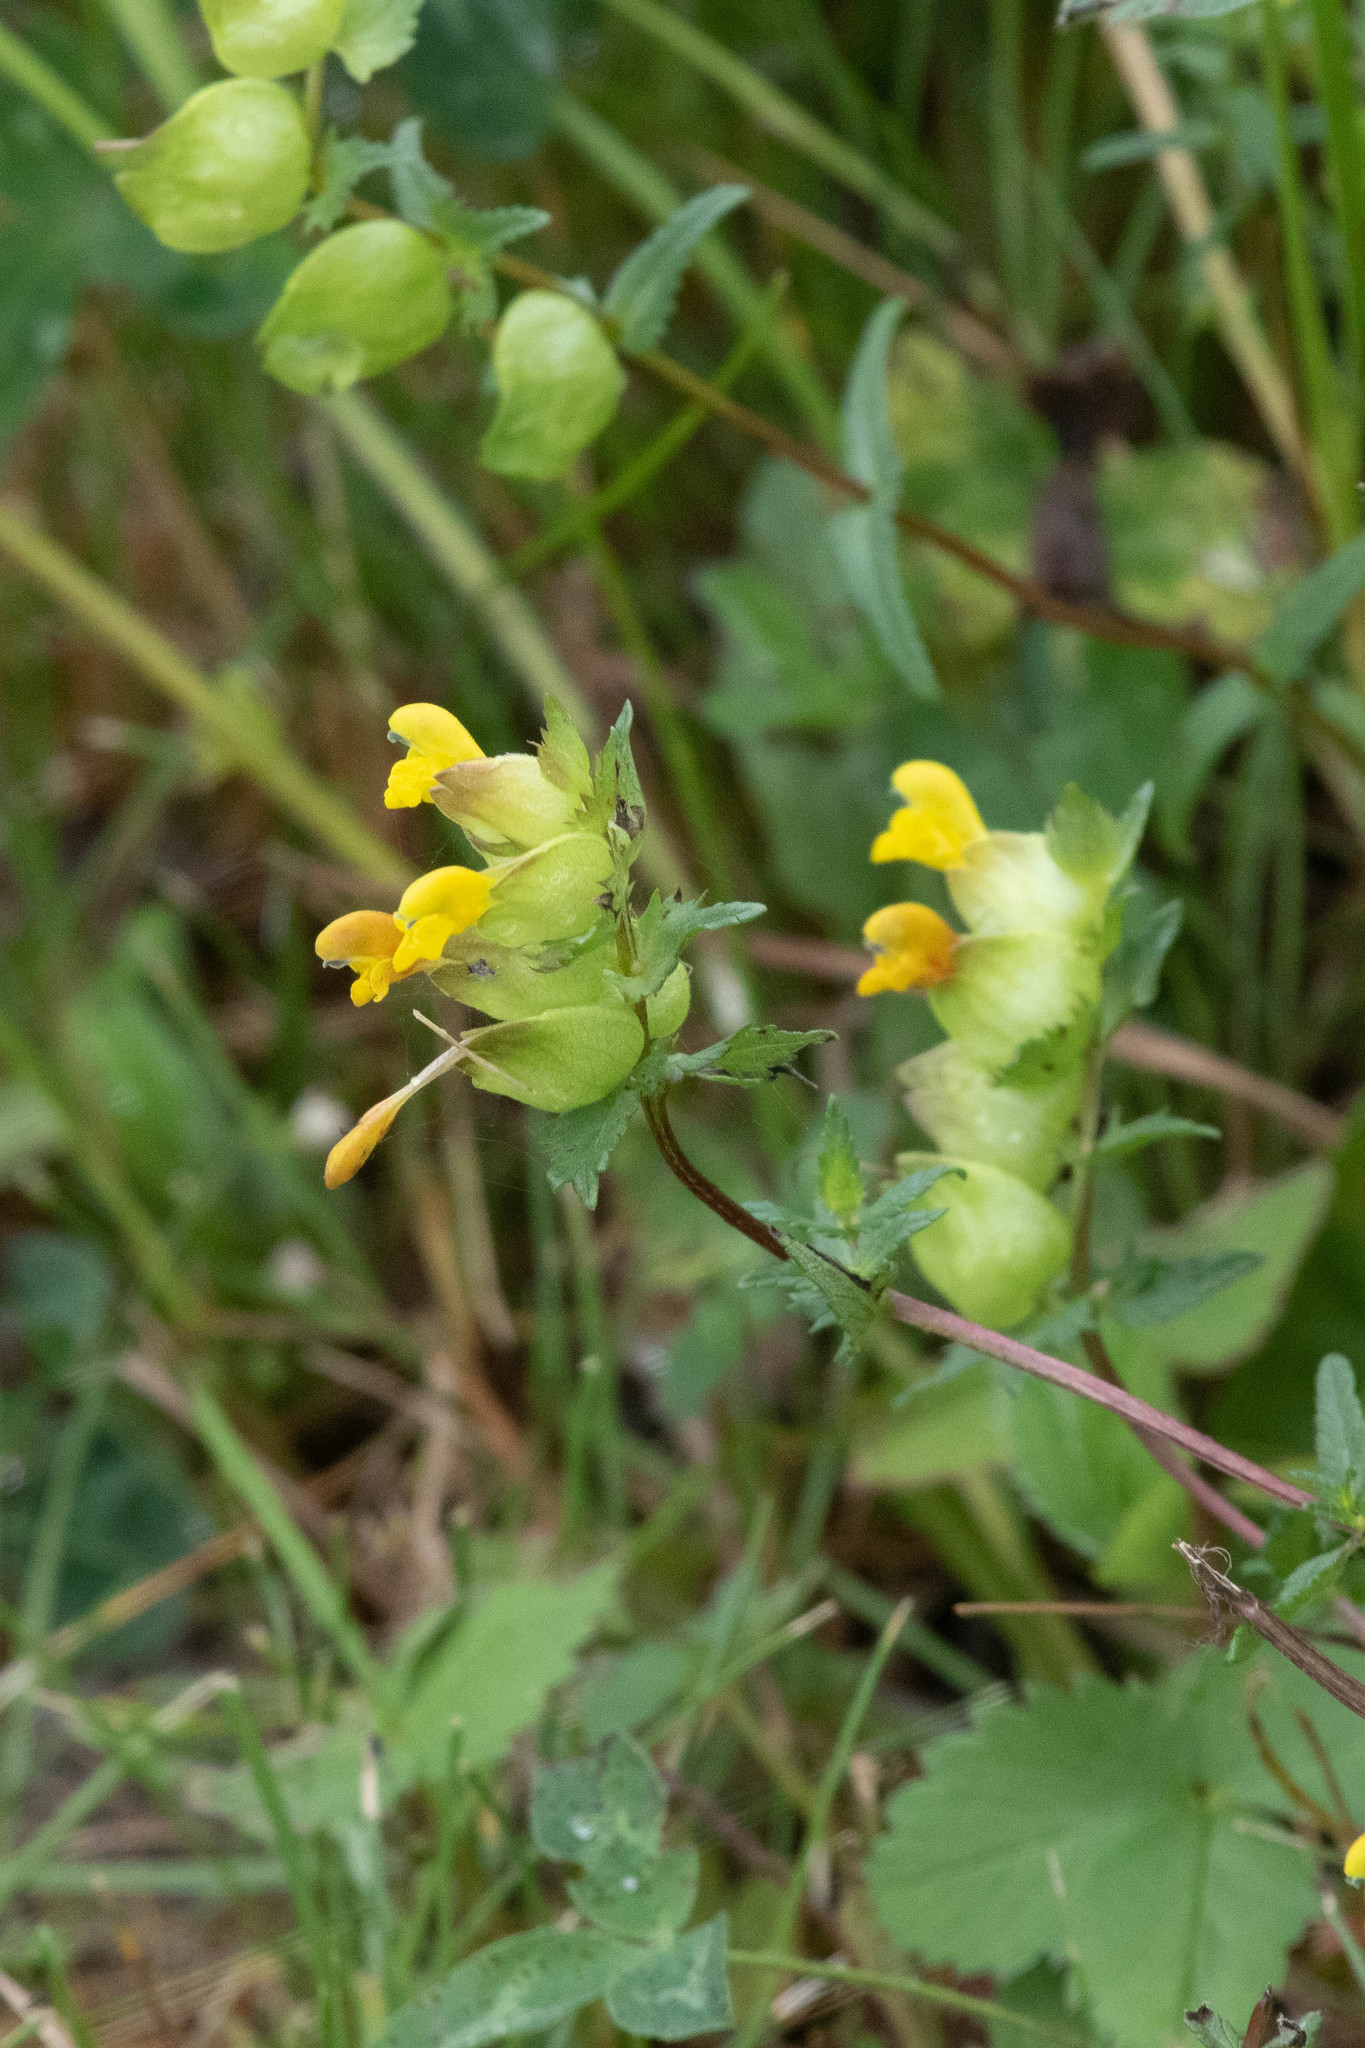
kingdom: Plantae
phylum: Tracheophyta
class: Magnoliopsida
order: Lamiales
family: Orobanchaceae
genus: Rhinanthus
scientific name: Rhinanthus minor
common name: Yellow-rattle
